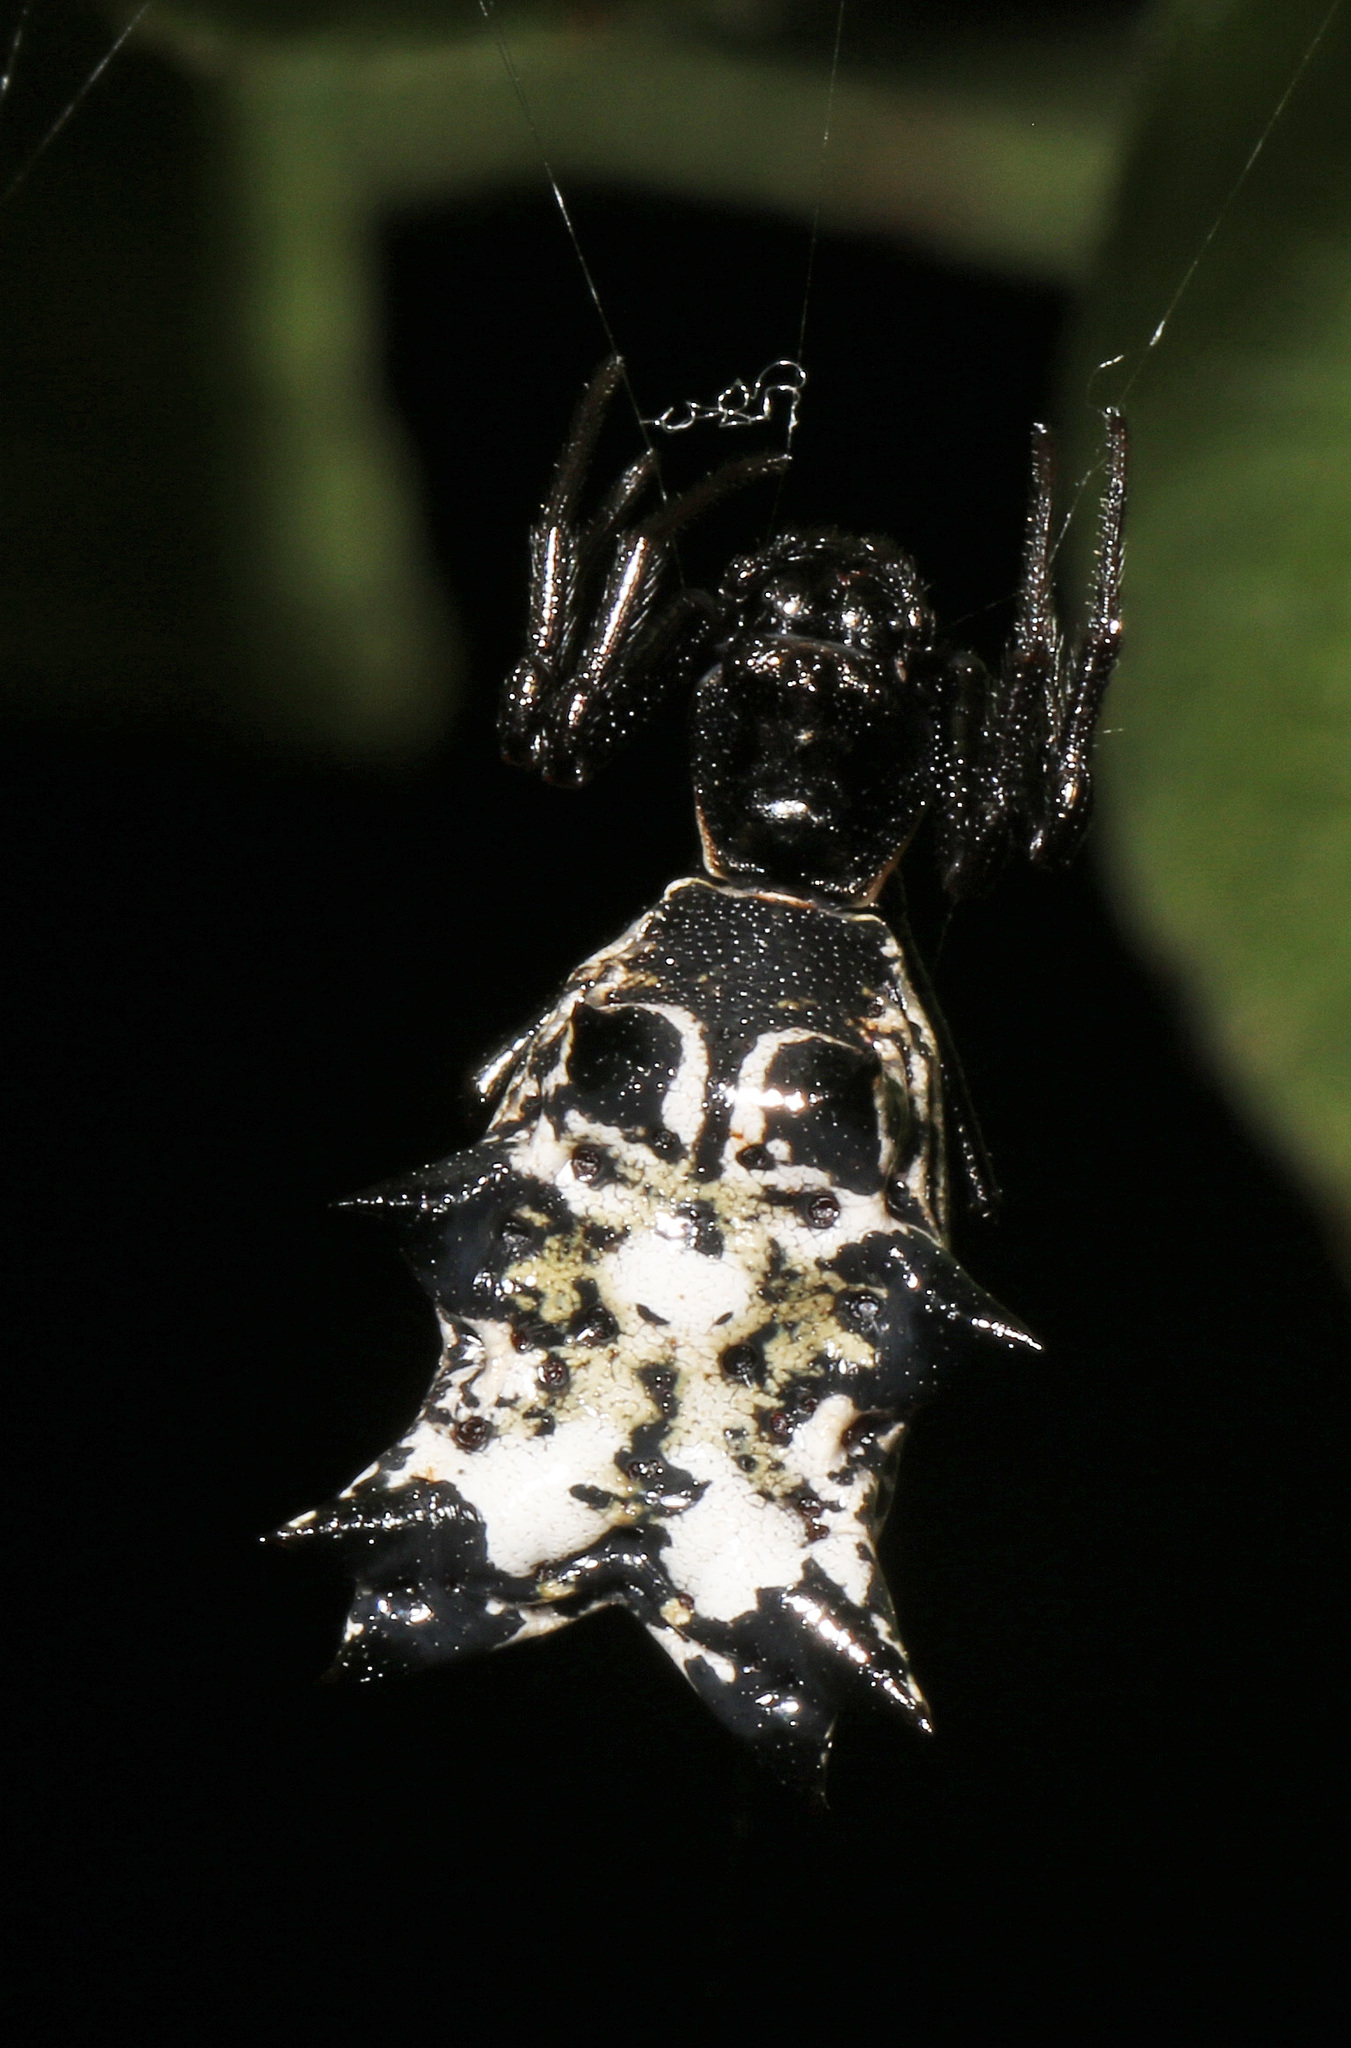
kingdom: Animalia
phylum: Arthropoda
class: Arachnida
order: Araneae
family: Araneidae
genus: Micrathena
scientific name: Micrathena gracilis
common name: Orb weavers
